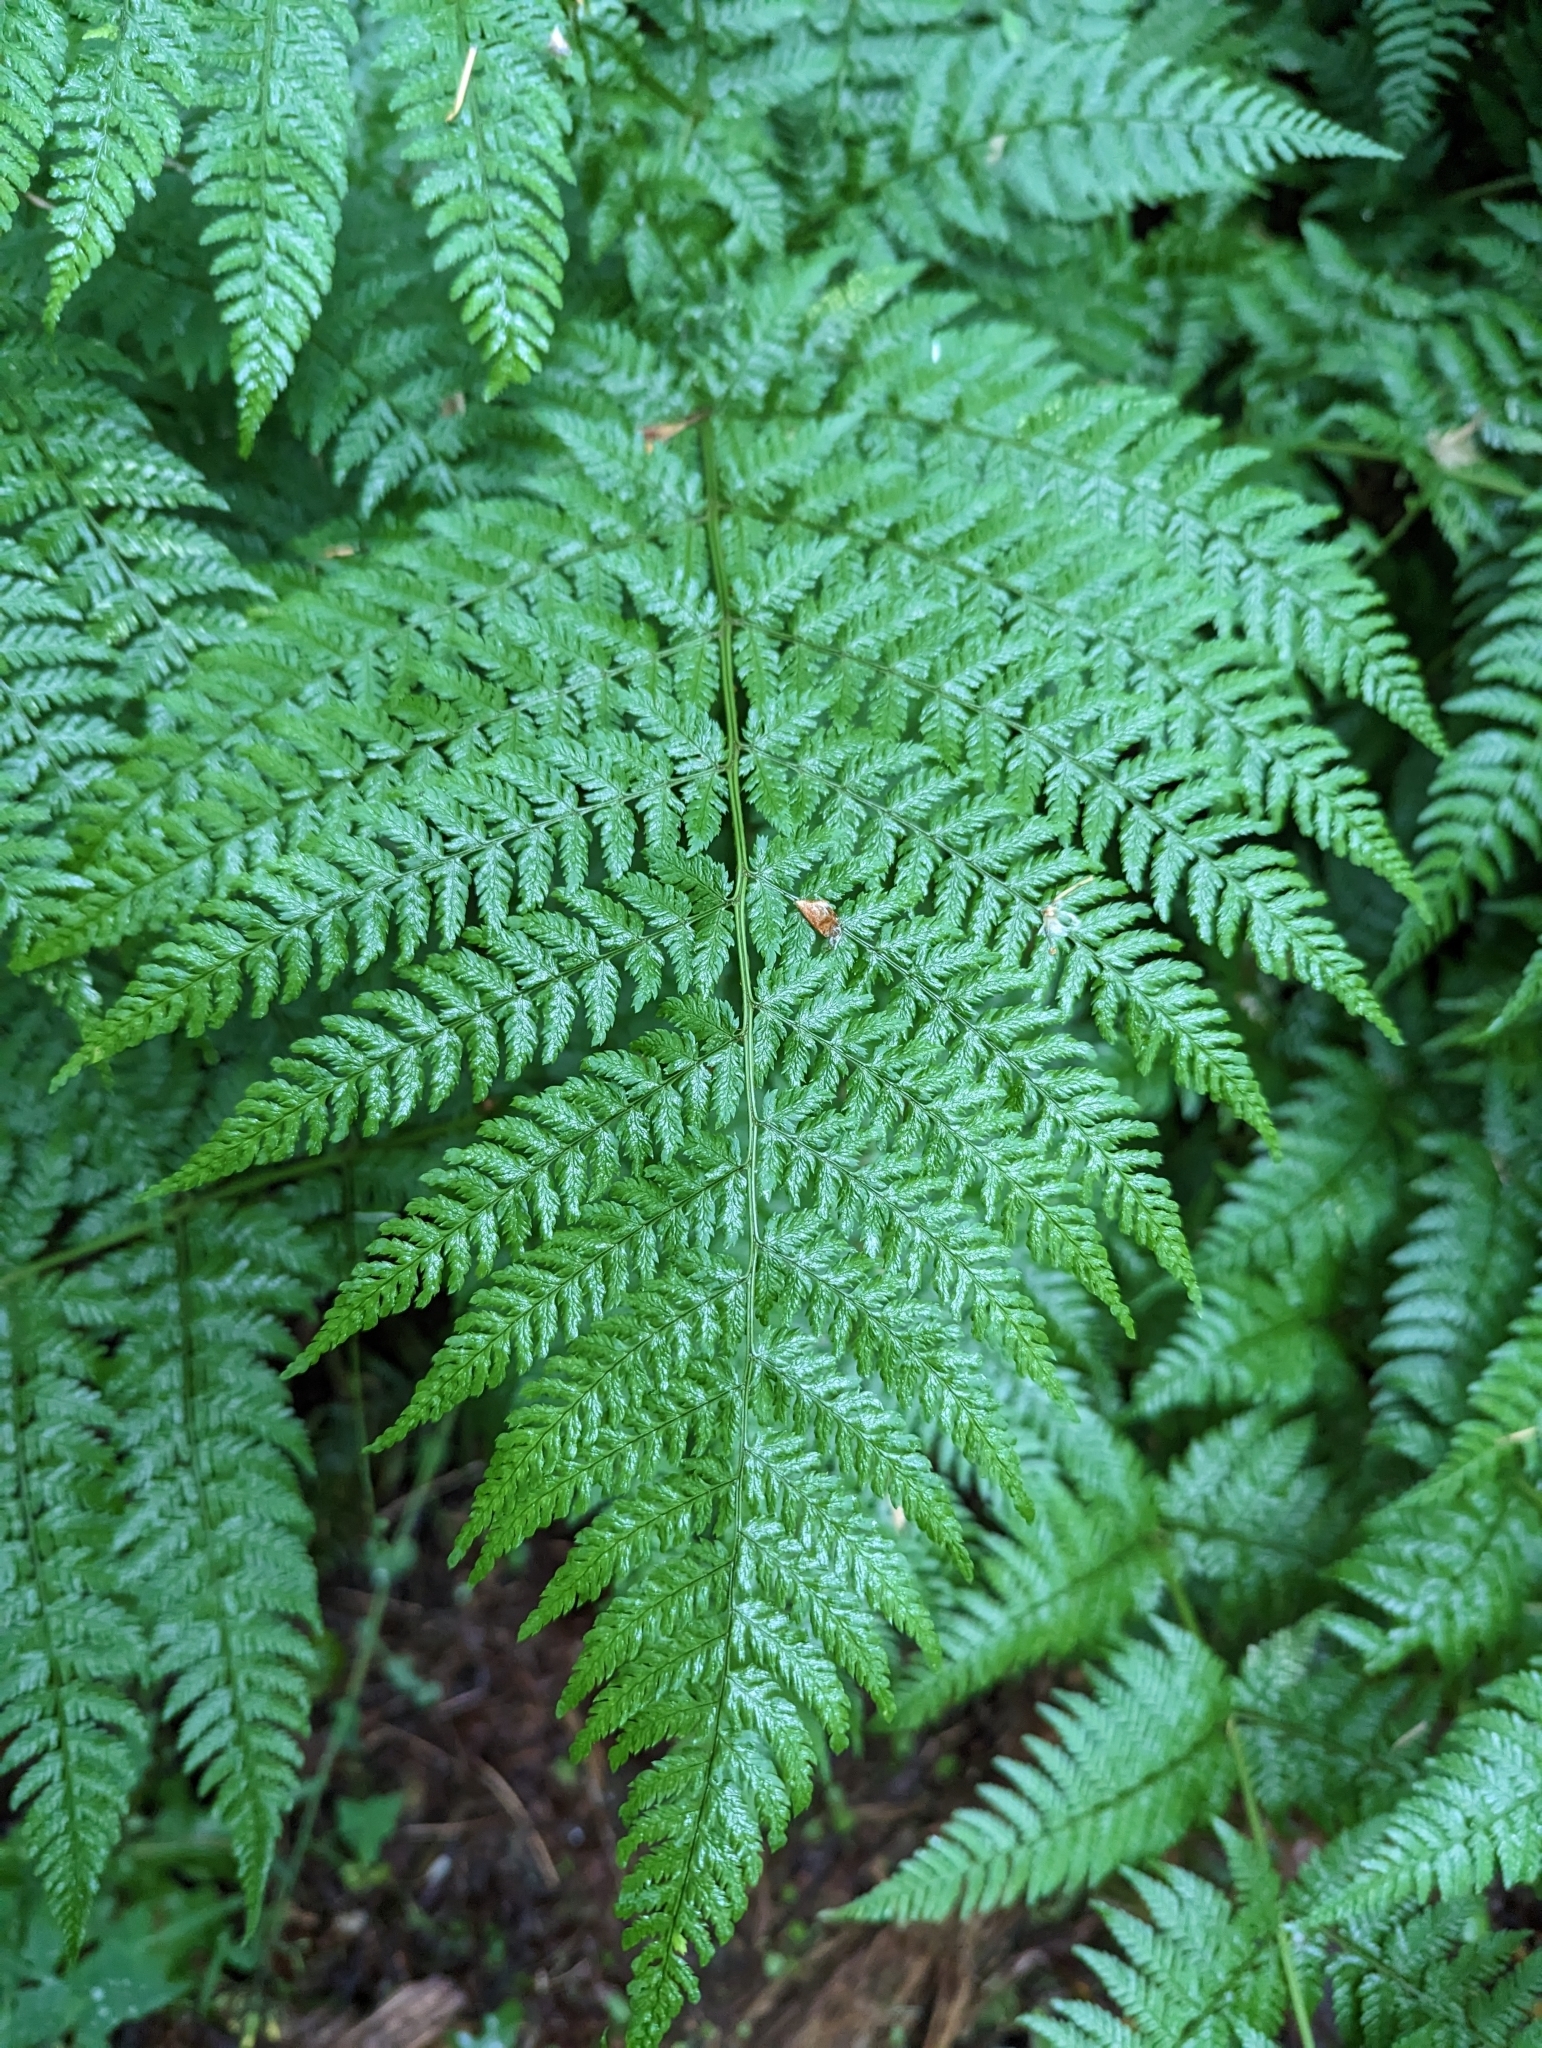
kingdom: Plantae
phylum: Tracheophyta
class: Polypodiopsida
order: Polypodiales
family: Dryopteridaceae
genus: Dryopteris
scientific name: Dryopteris expansa
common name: Northern buckler fern
